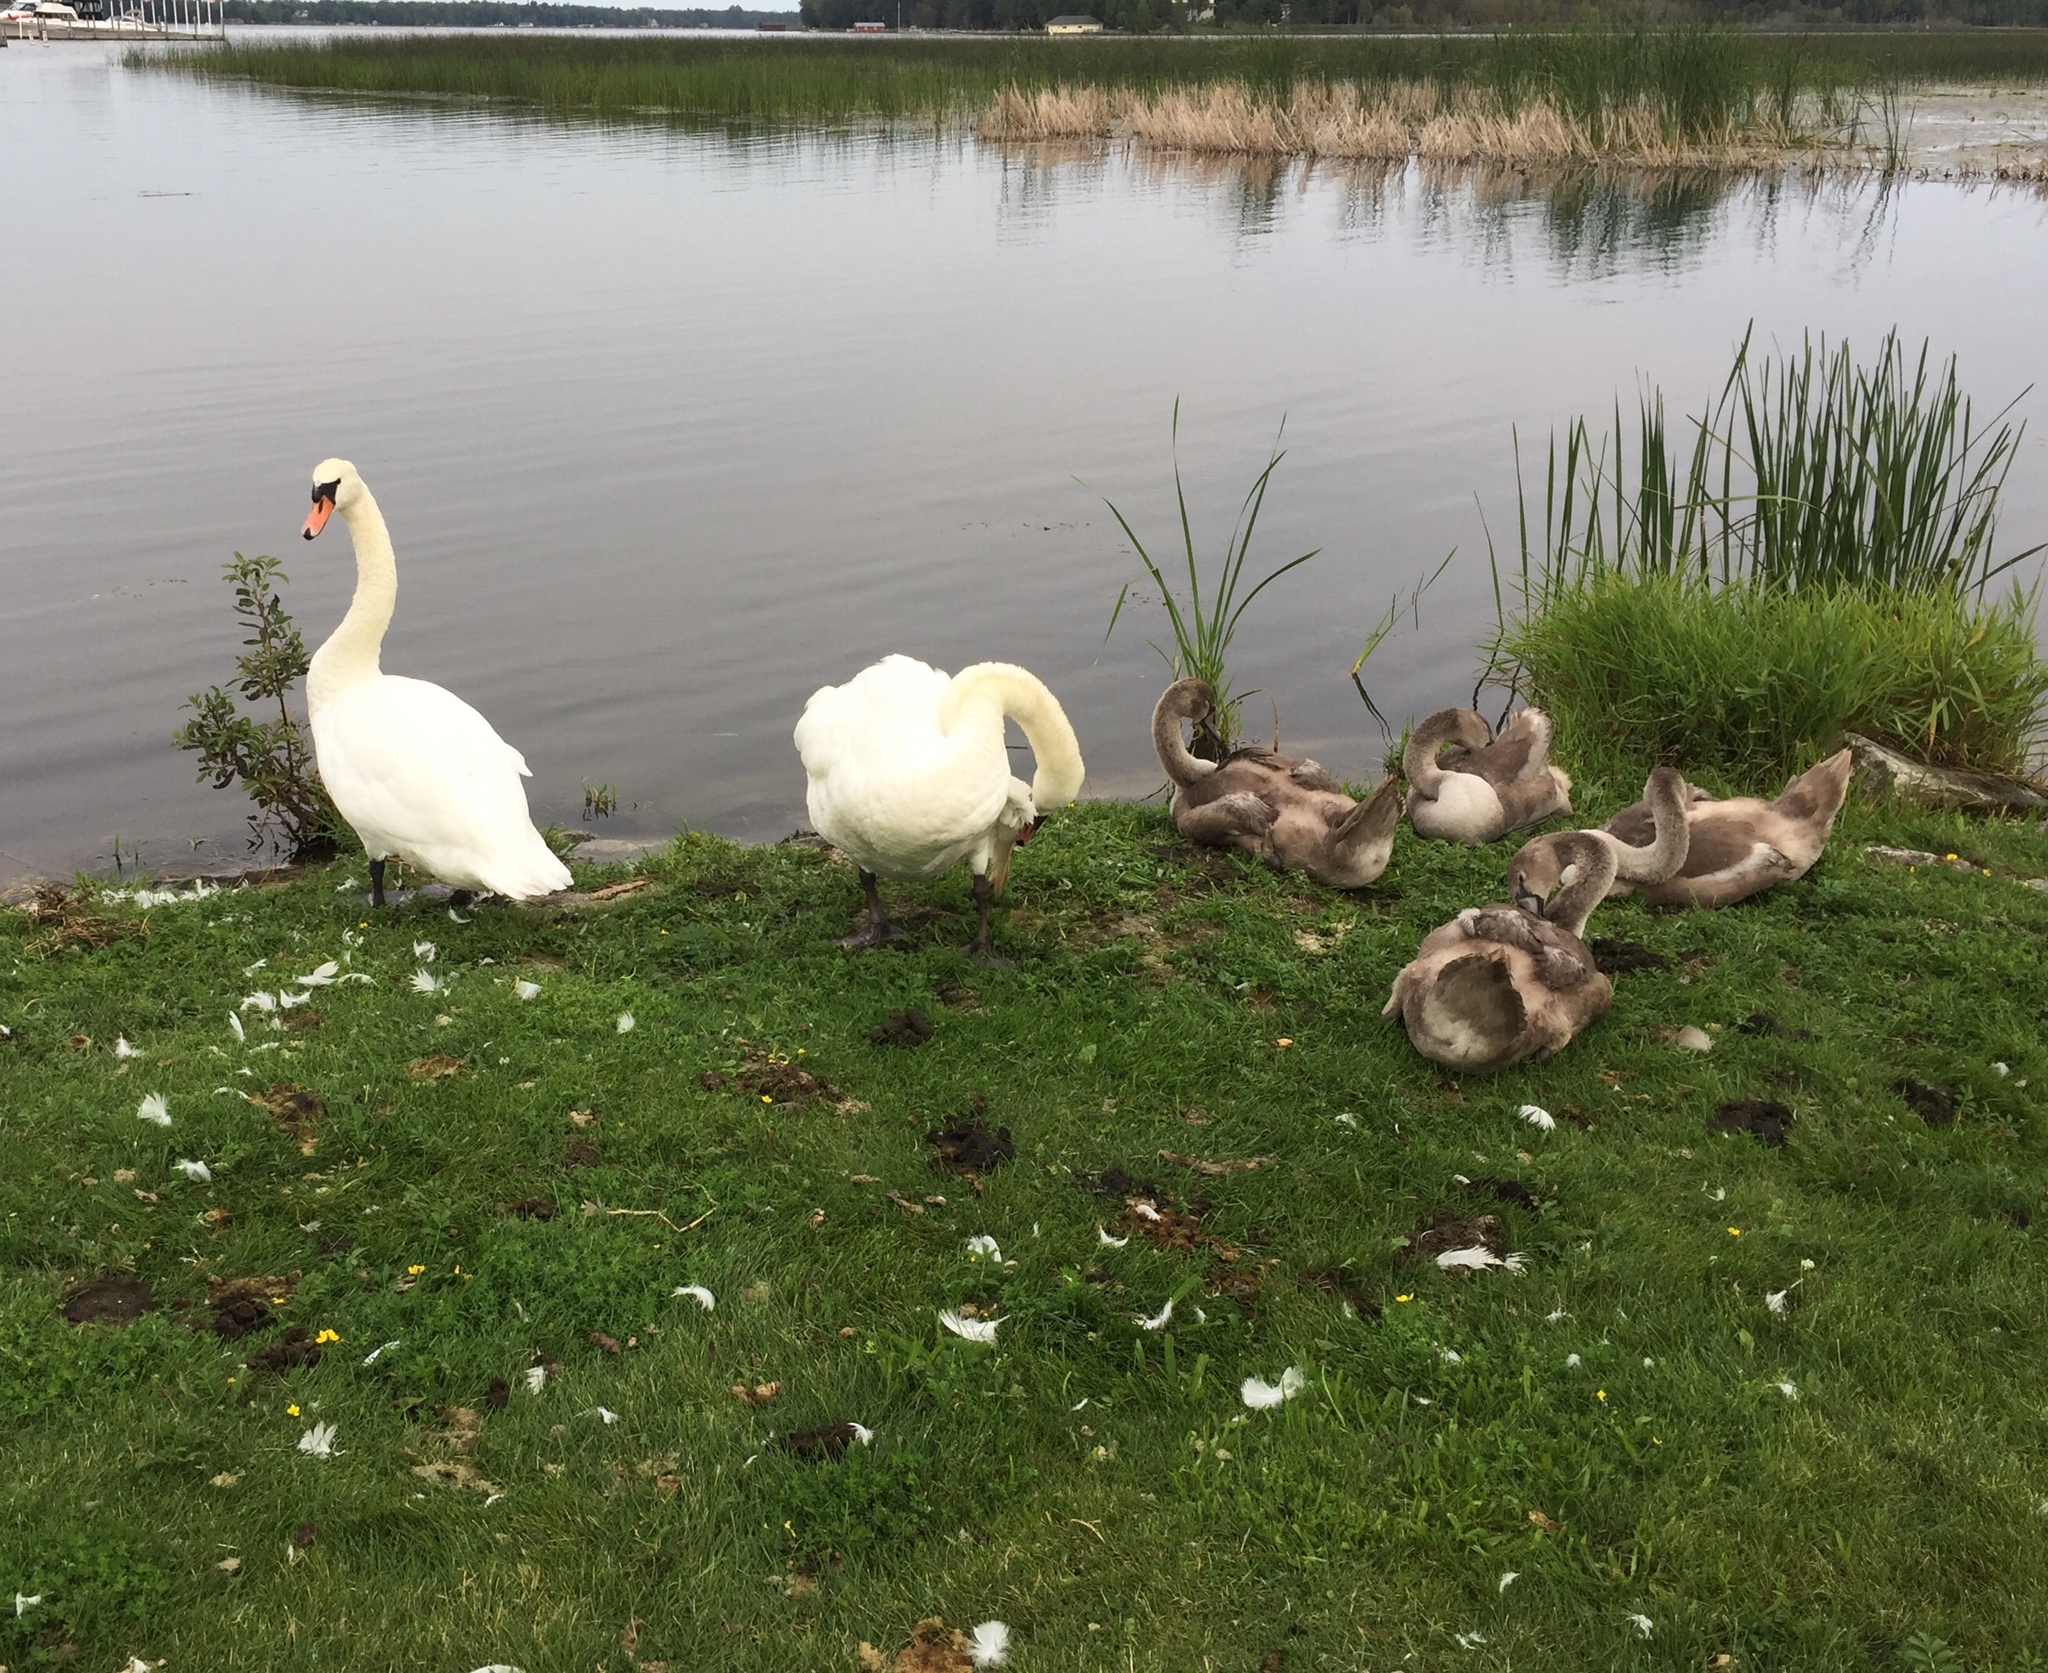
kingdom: Animalia
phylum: Chordata
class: Aves
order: Anseriformes
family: Anatidae
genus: Cygnus
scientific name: Cygnus olor
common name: Mute swan
